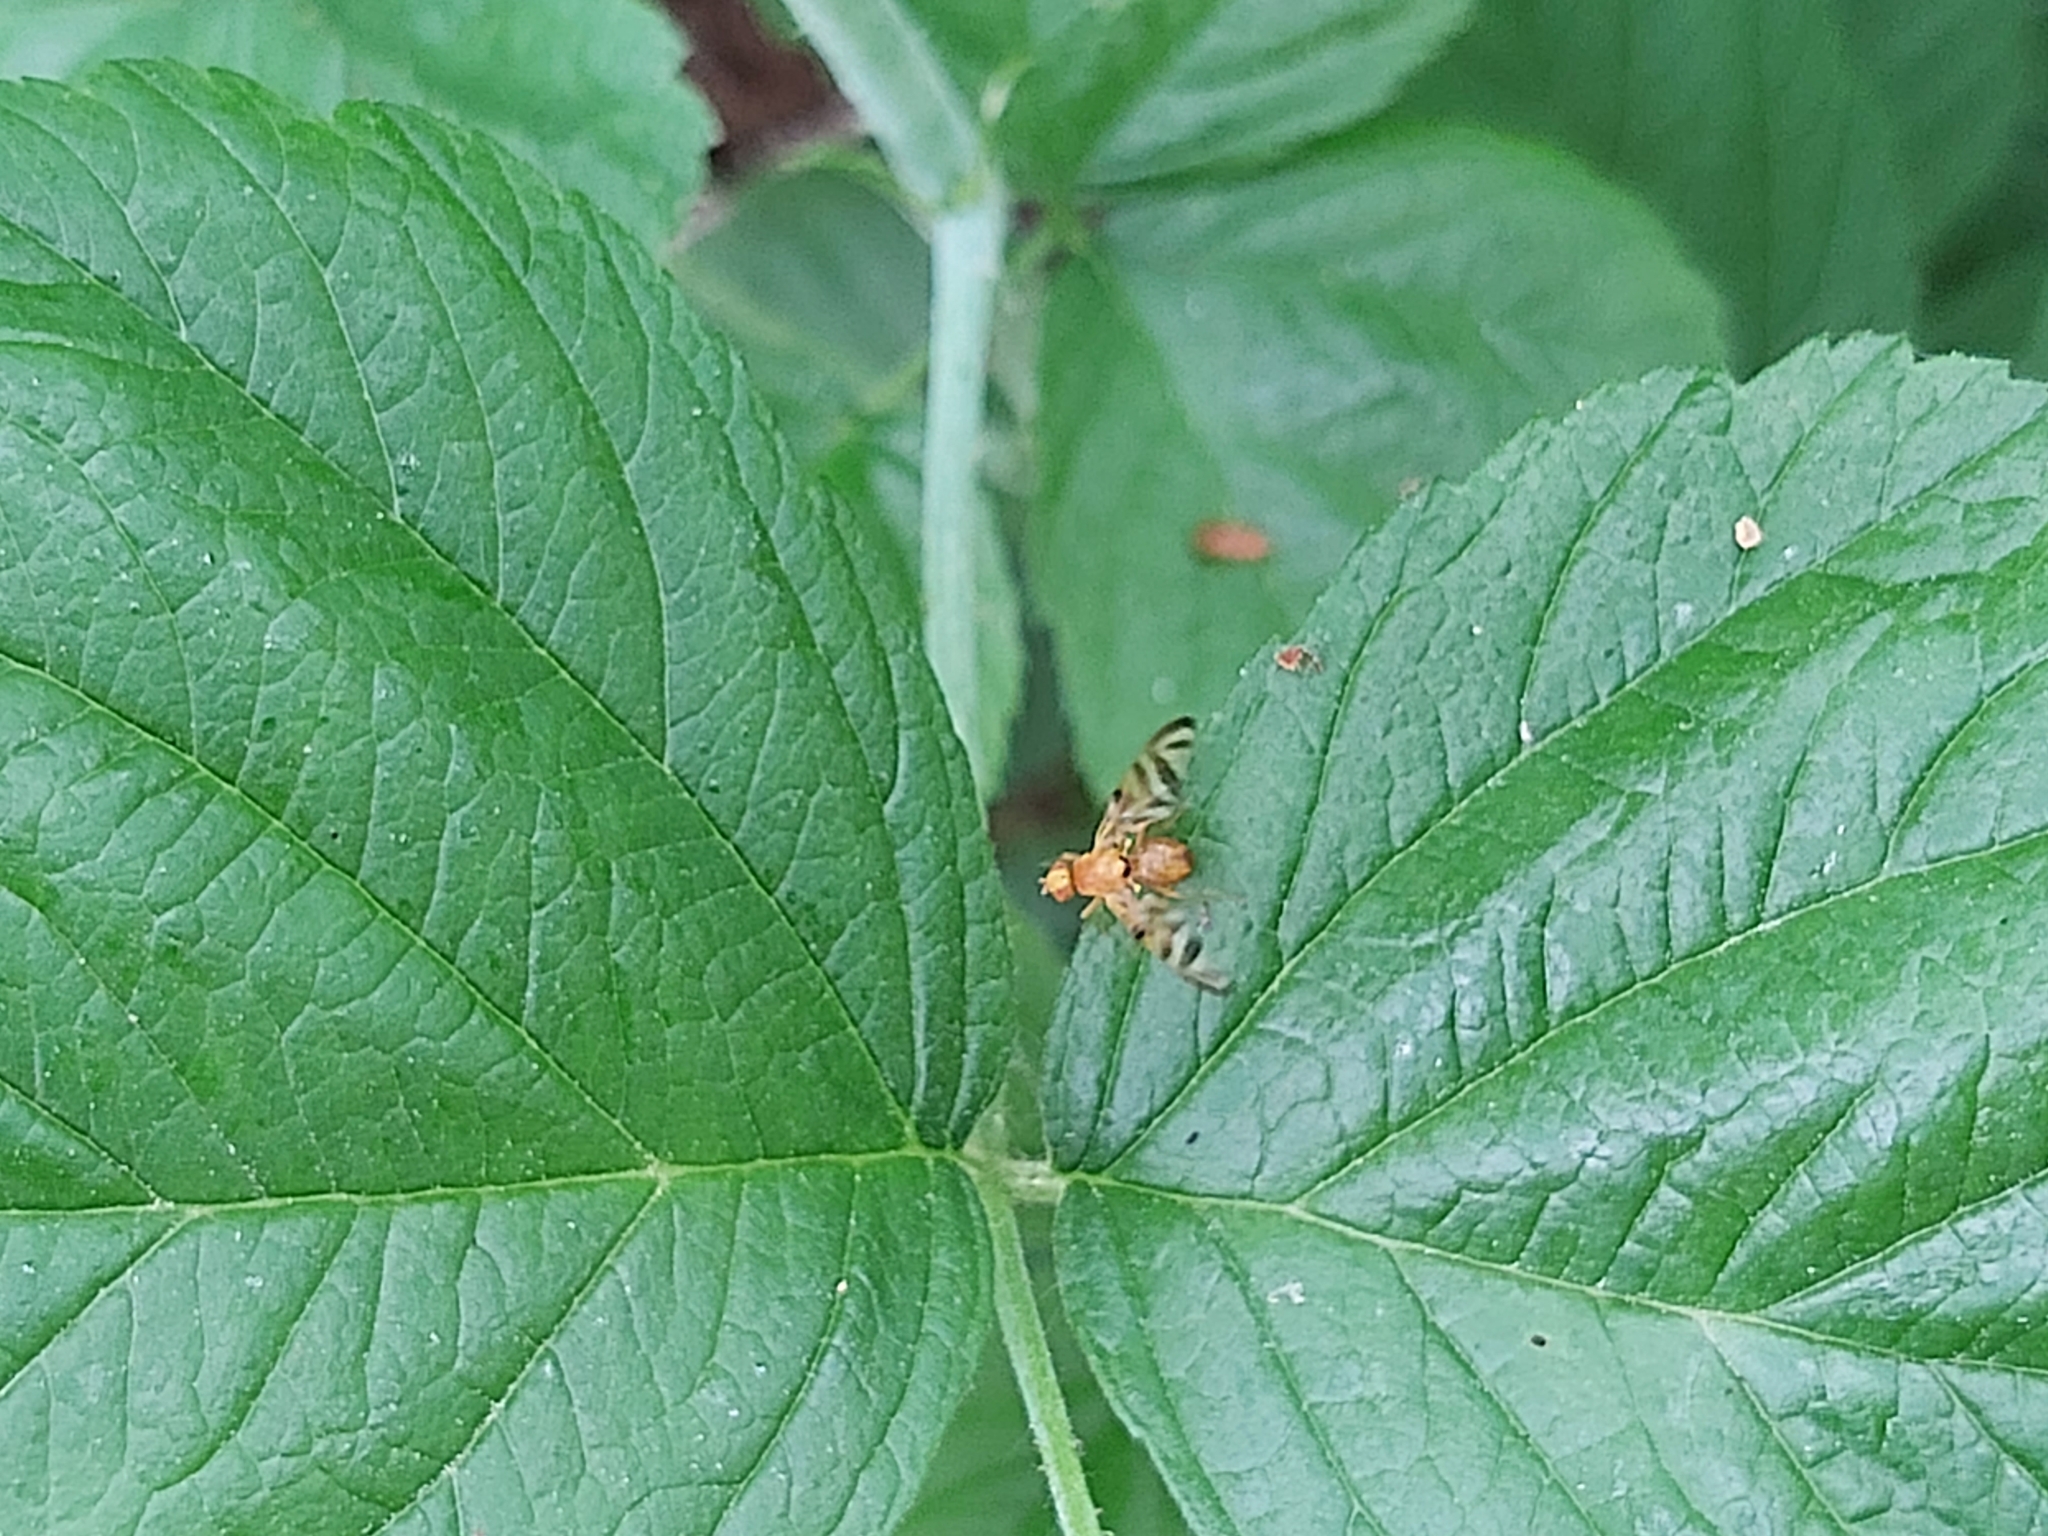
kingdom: Animalia
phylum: Arthropoda
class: Insecta
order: Diptera
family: Tephritidae
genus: Myoleja
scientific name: Myoleja lucida
